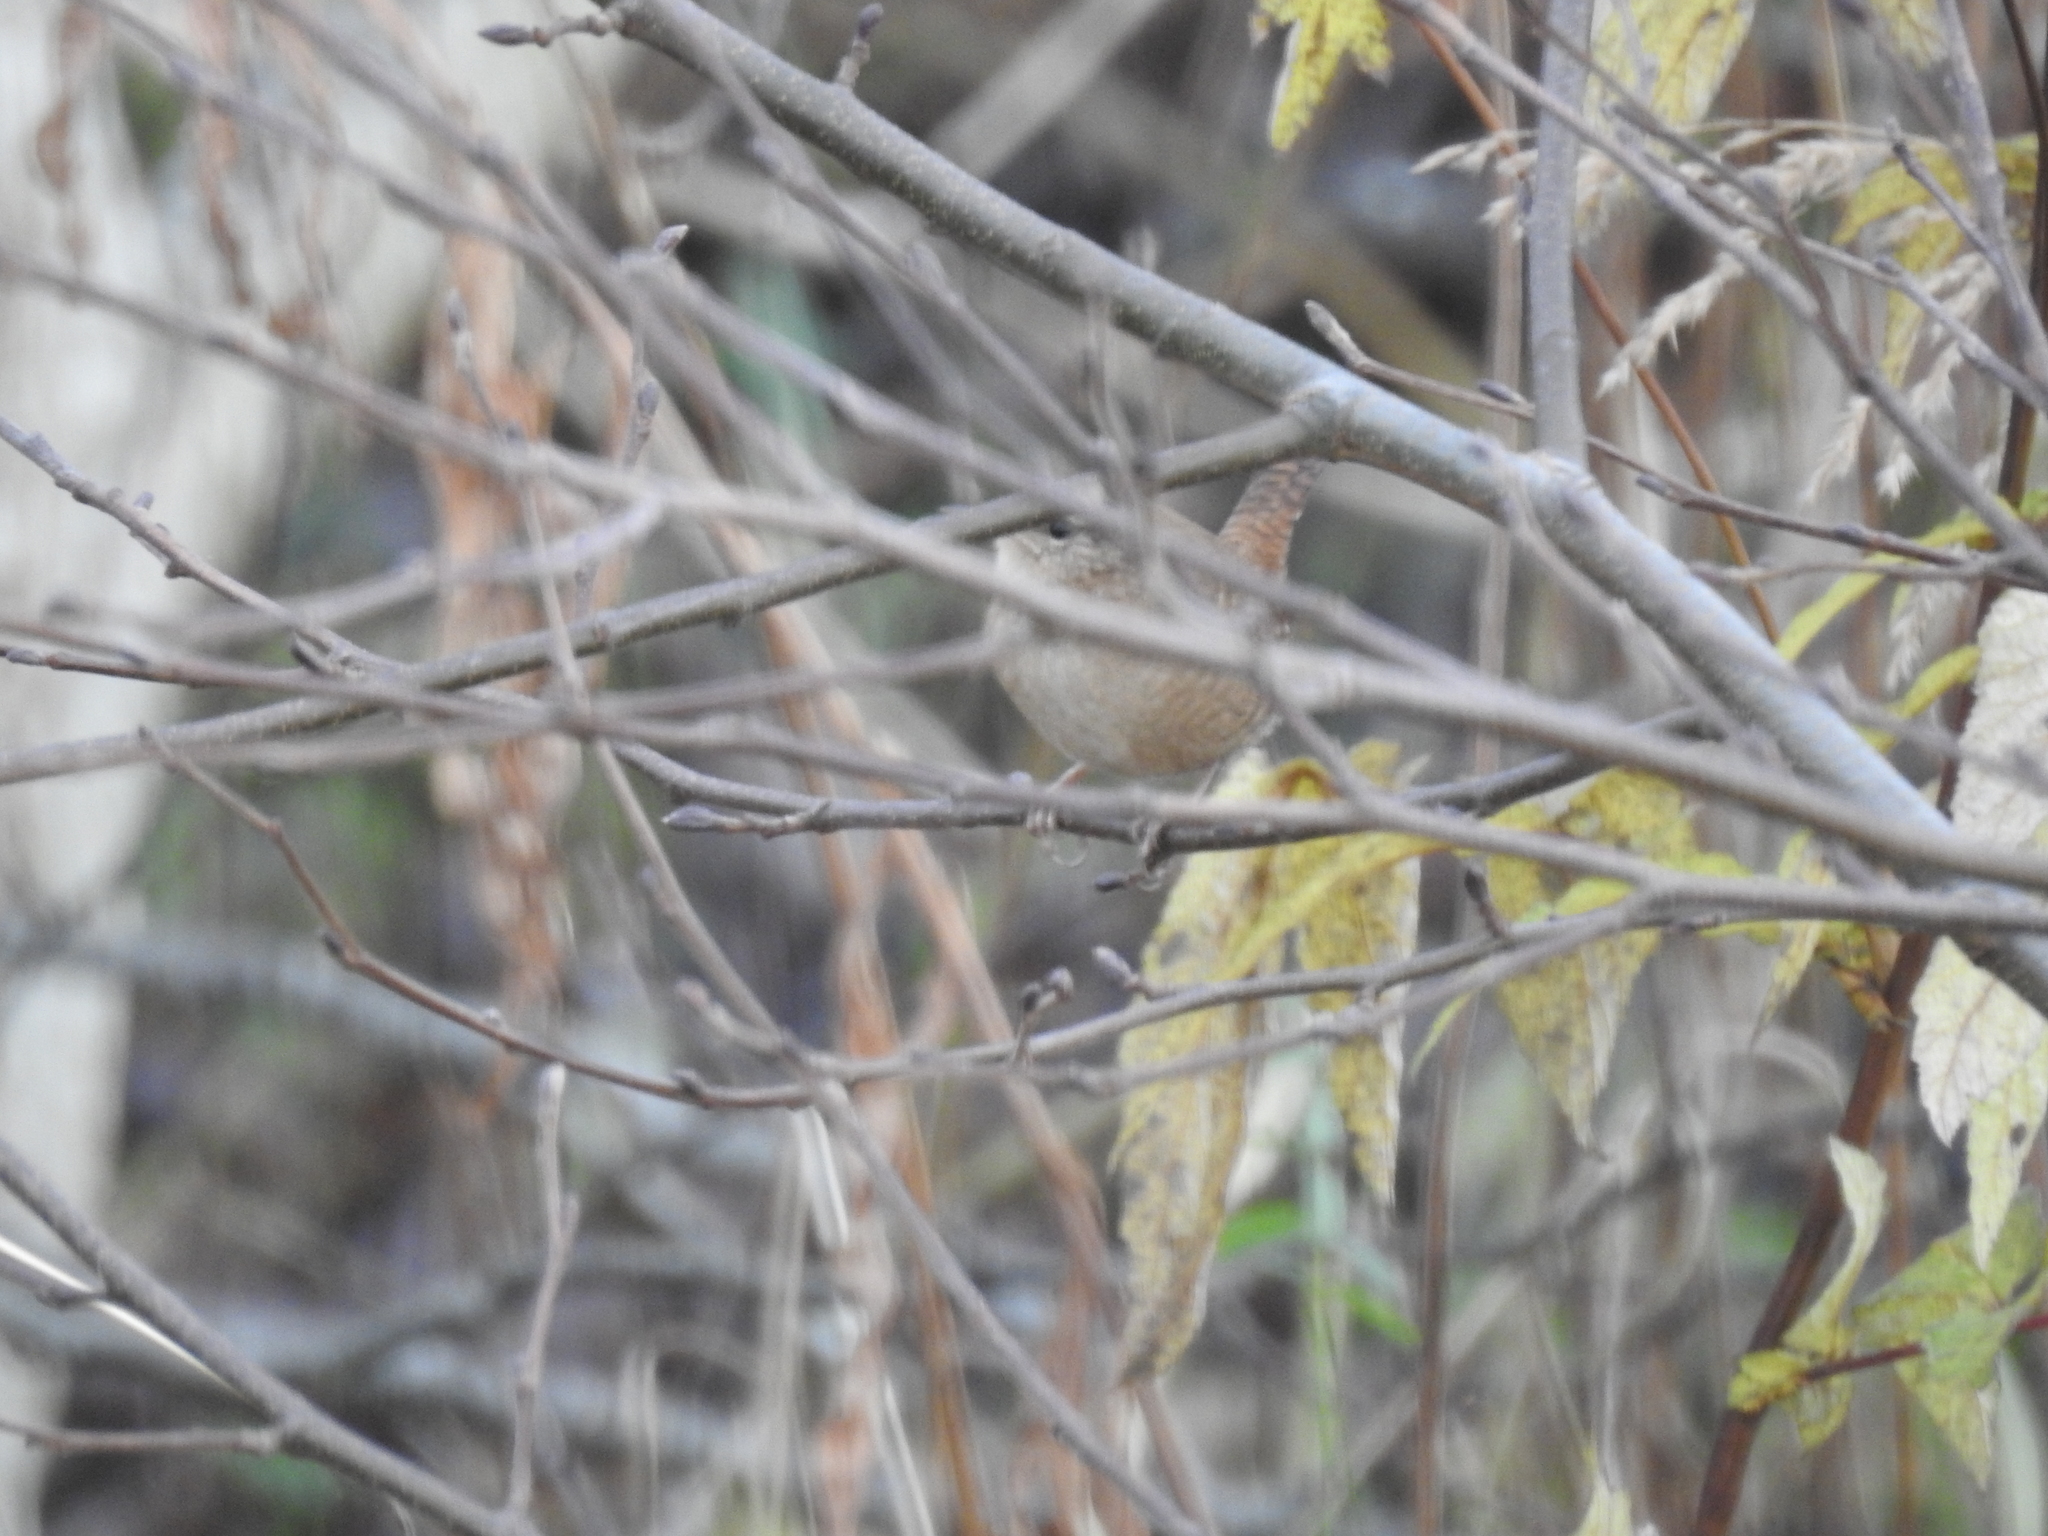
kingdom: Animalia
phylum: Chordata
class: Aves
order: Passeriformes
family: Troglodytidae
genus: Troglodytes
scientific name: Troglodytes troglodytes
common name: Eurasian wren
